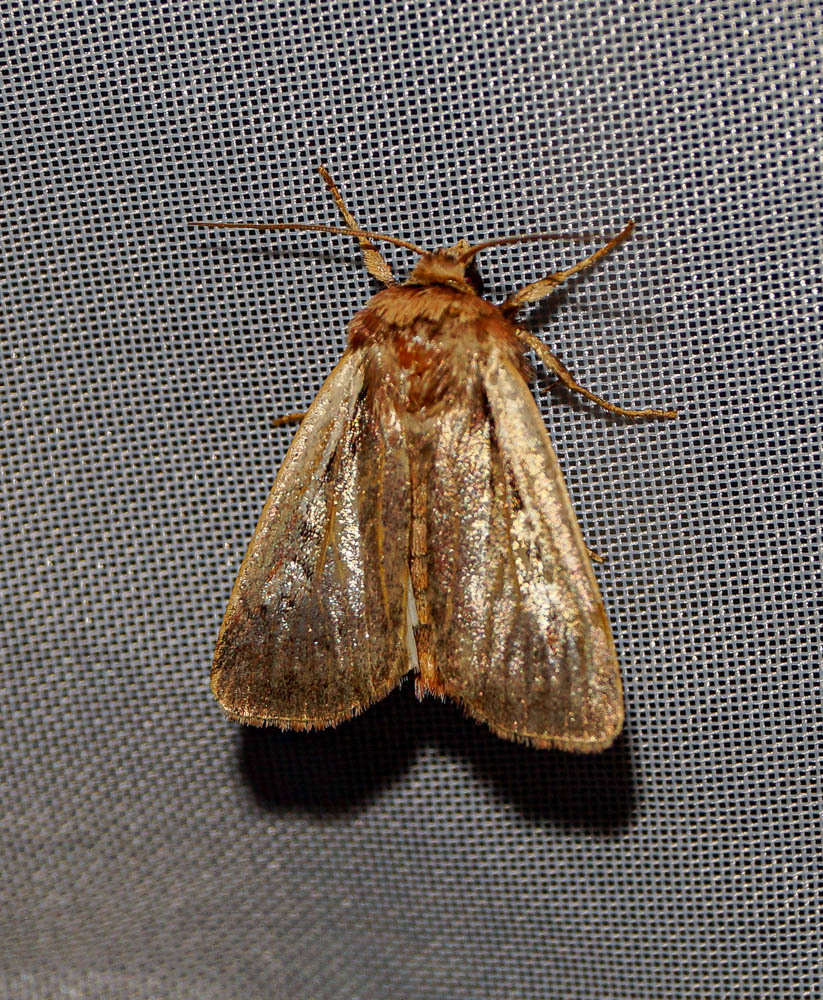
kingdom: Animalia
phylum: Arthropoda
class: Insecta
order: Lepidoptera
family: Noctuidae
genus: Ochropleura
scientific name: Ochropleura plecta
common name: Flame shoulder
